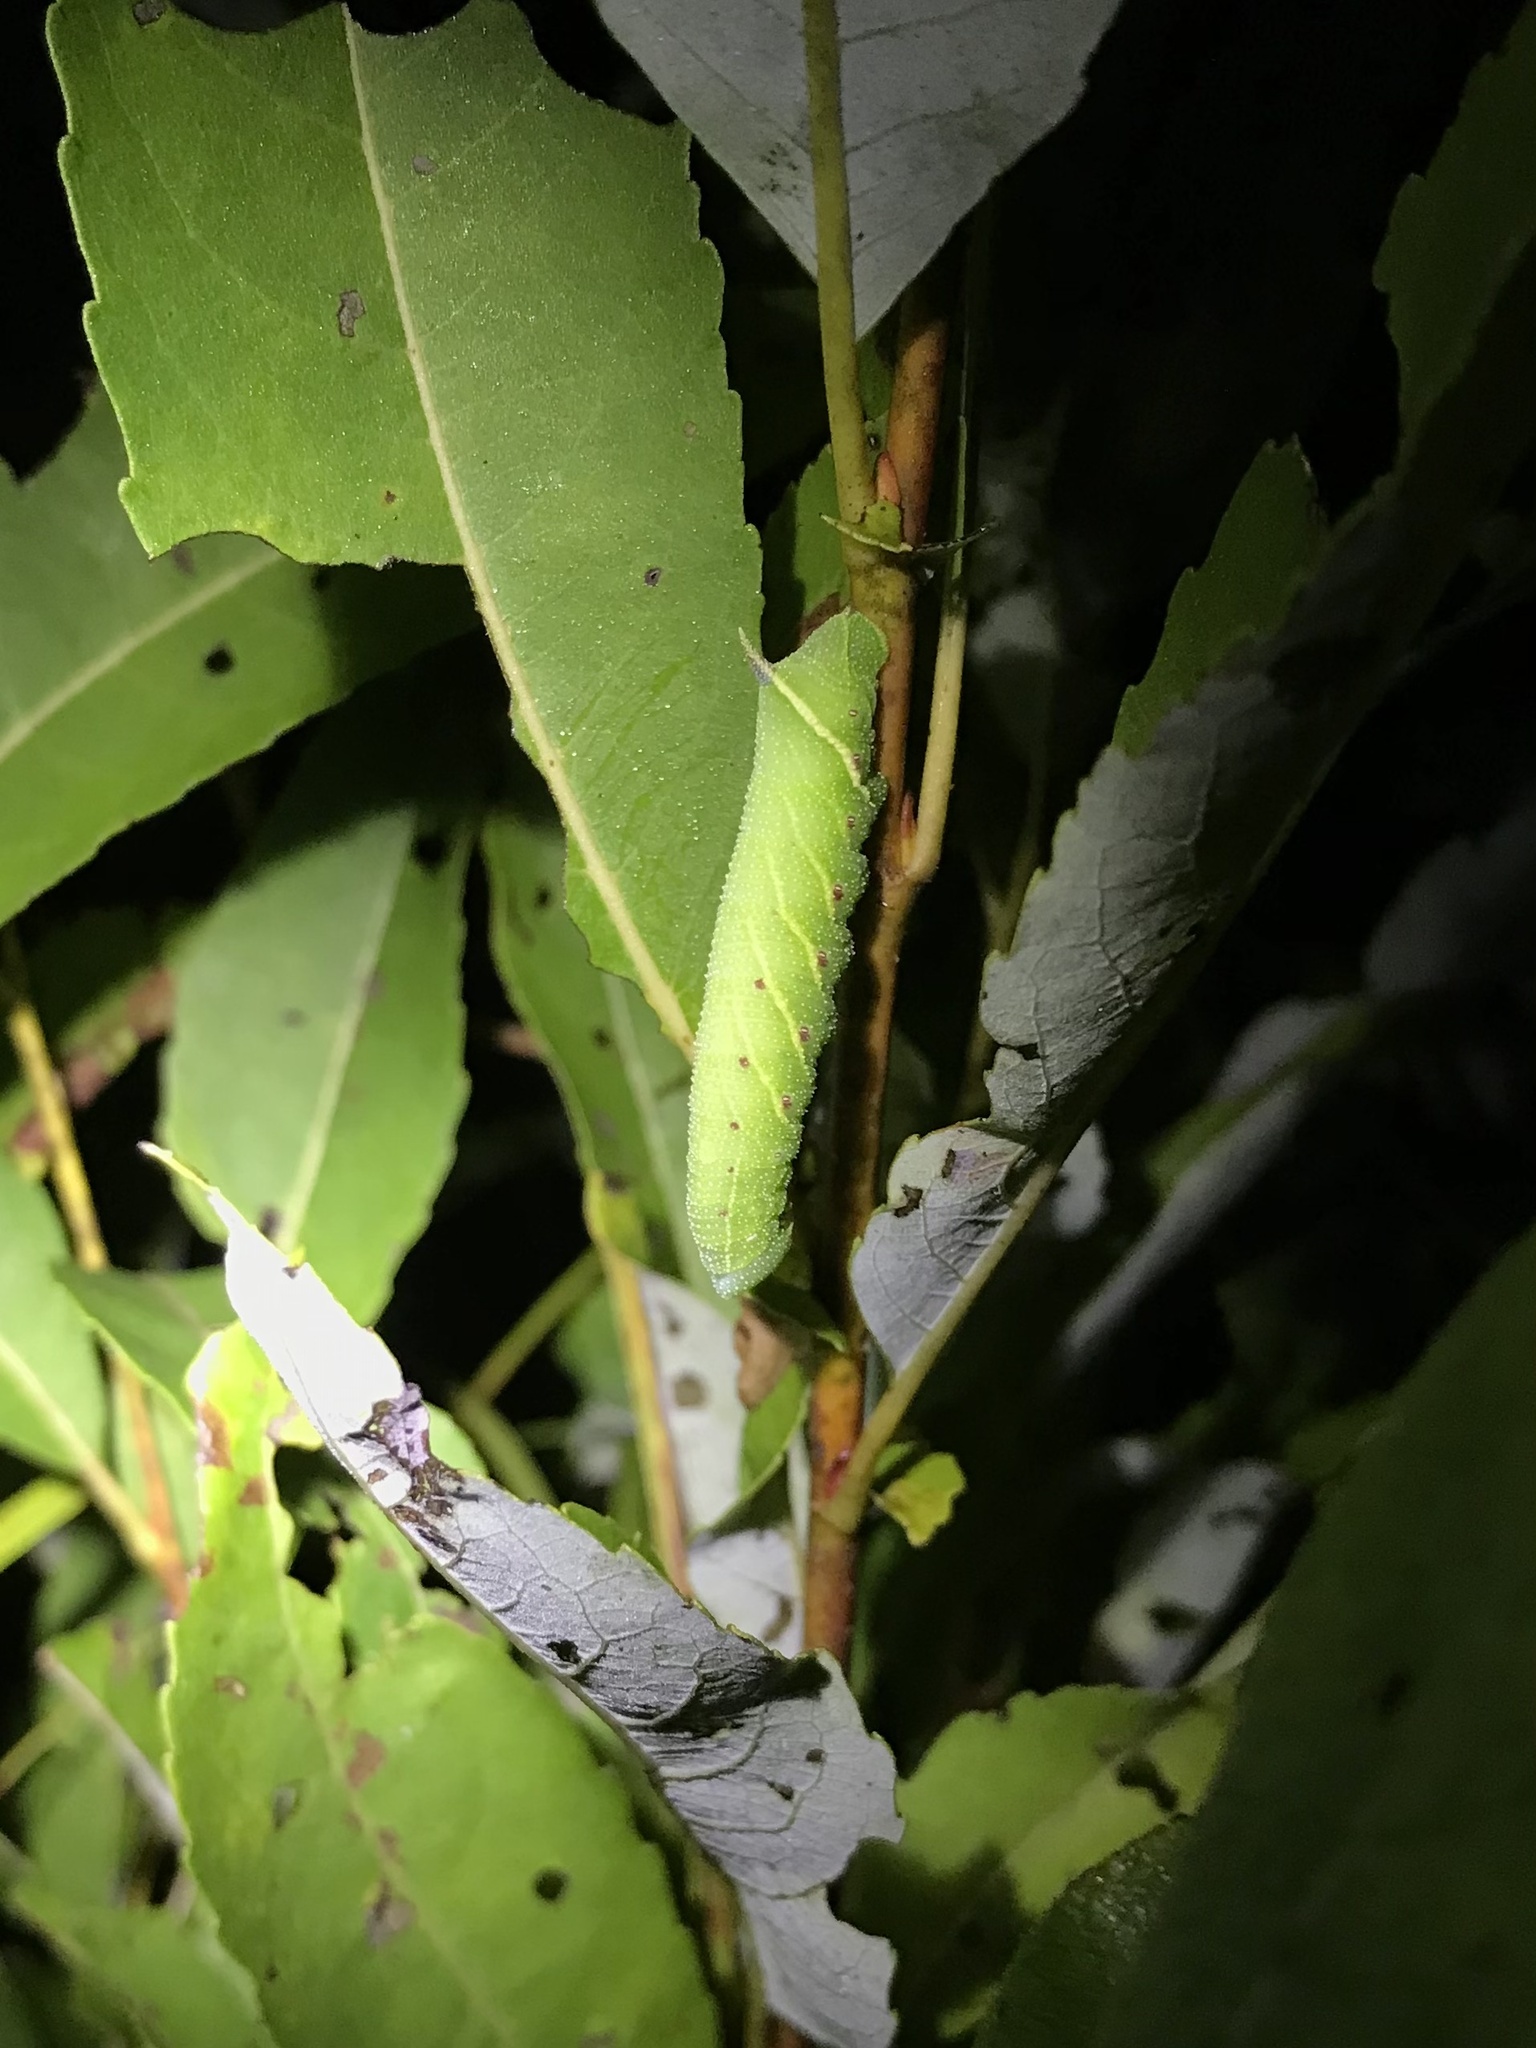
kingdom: Animalia
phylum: Arthropoda
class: Insecta
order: Lepidoptera
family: Sphingidae
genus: Smerinthus
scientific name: Smerinthus jamaicensis
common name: Twin spotted sphinx
